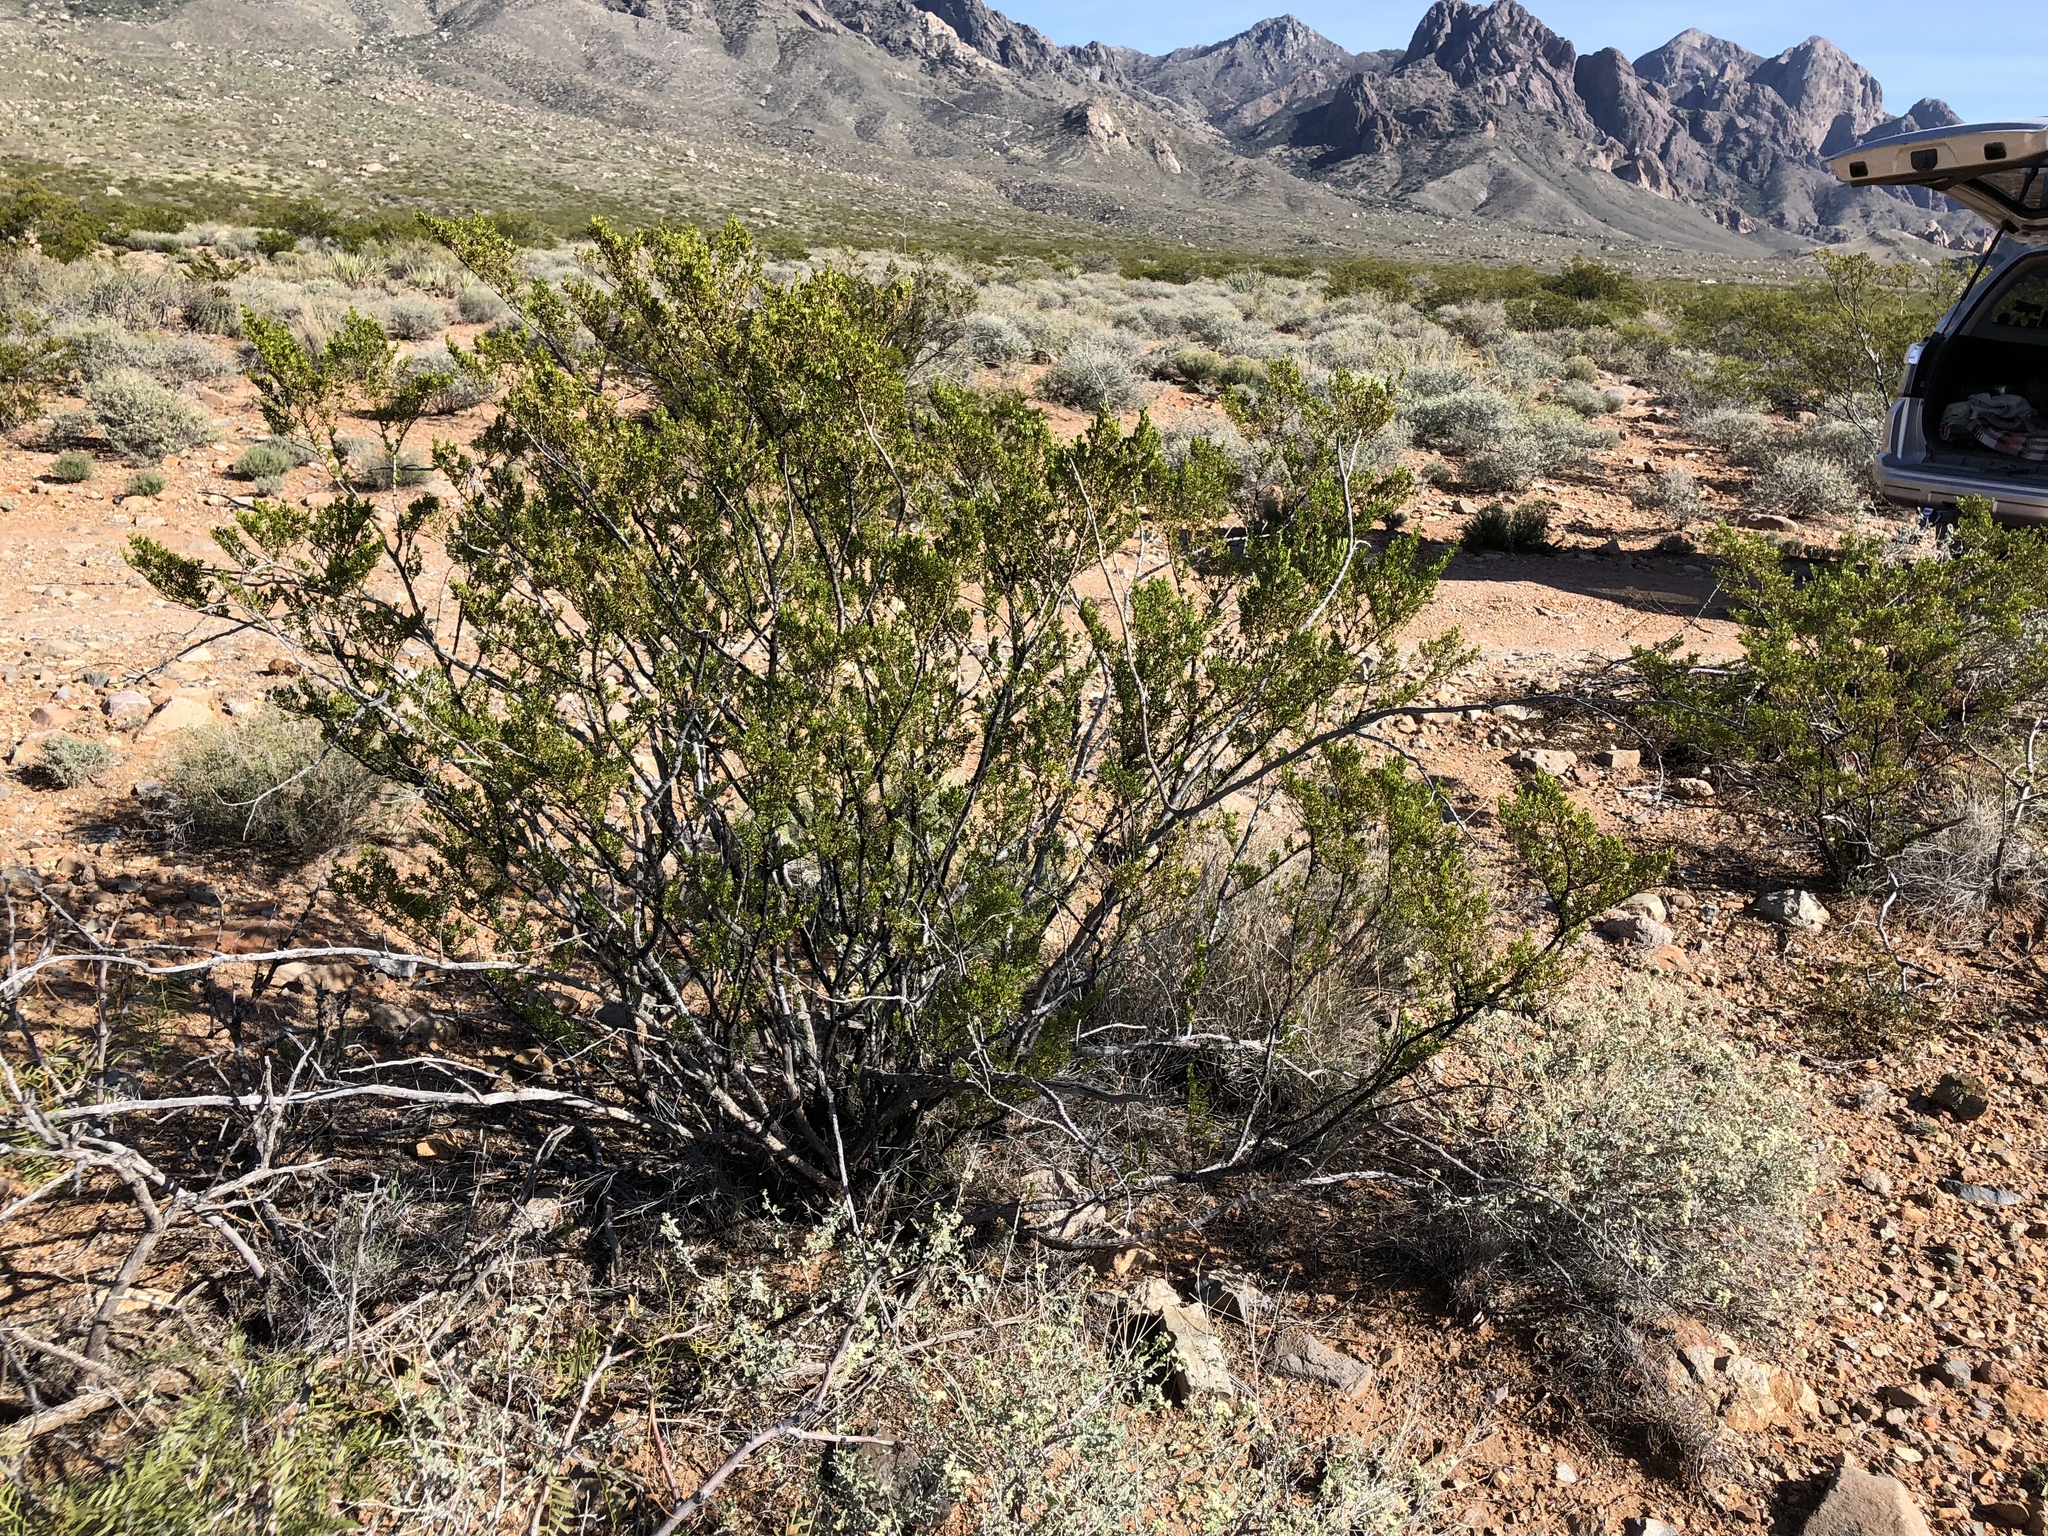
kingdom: Plantae
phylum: Tracheophyta
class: Magnoliopsida
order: Zygophyllales
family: Zygophyllaceae
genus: Larrea
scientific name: Larrea tridentata
